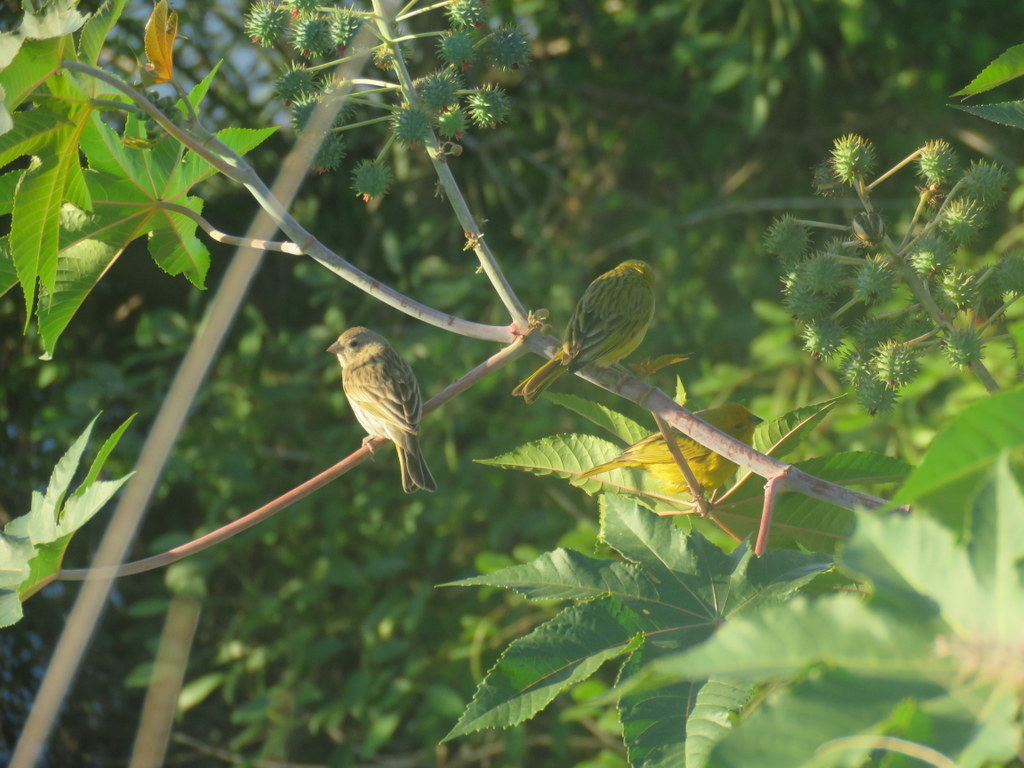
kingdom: Animalia
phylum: Chordata
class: Aves
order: Passeriformes
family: Thraupidae
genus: Sicalis
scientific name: Sicalis flaveola
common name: Saffron finch
